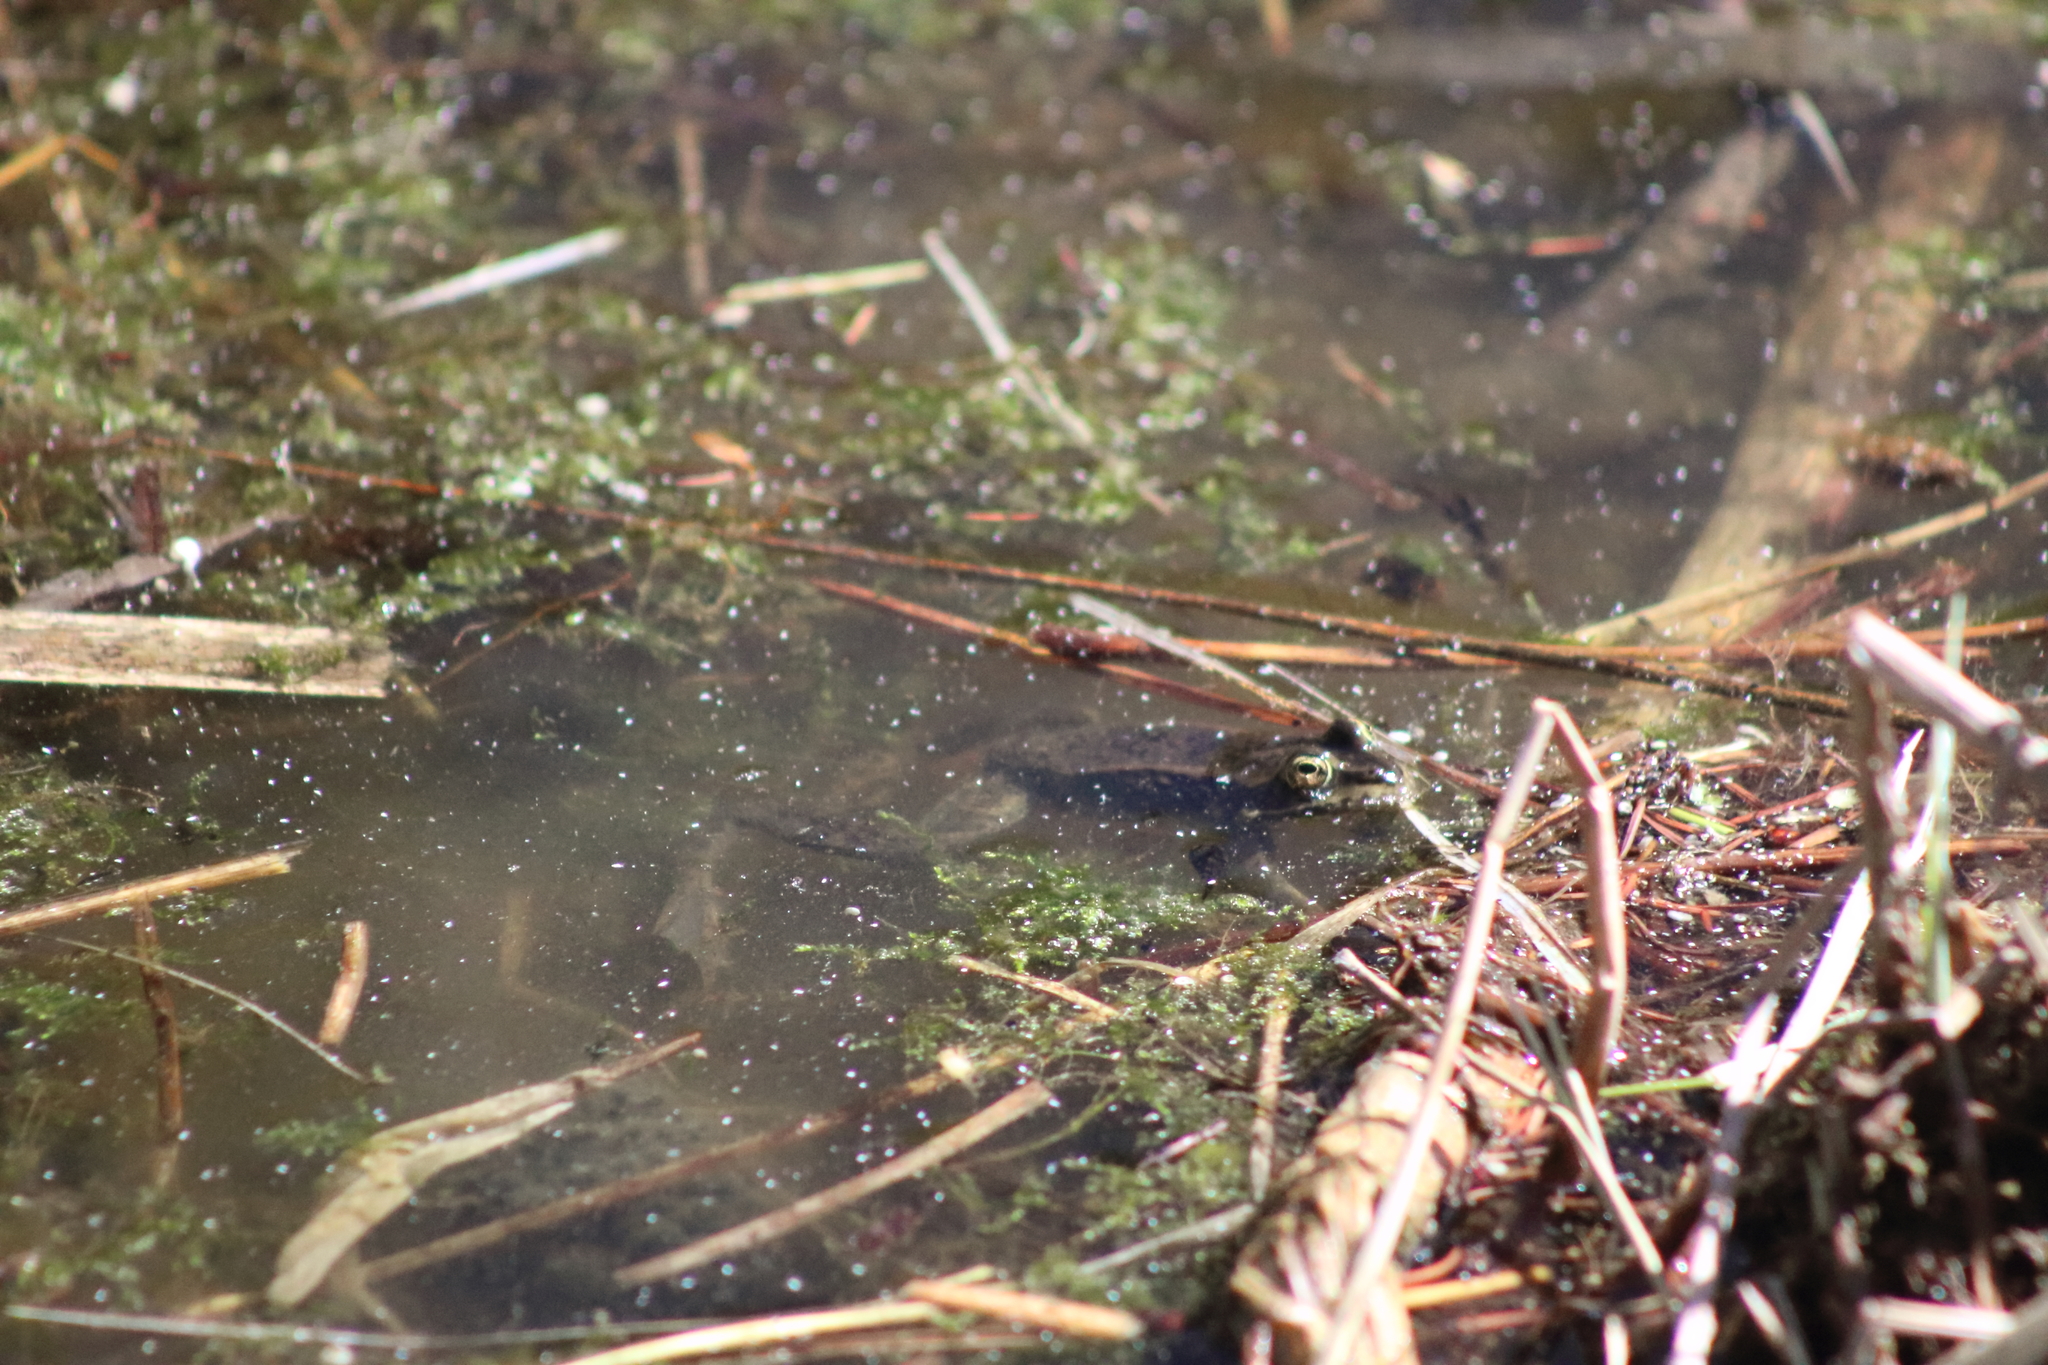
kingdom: Animalia
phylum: Chordata
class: Amphibia
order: Anura
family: Ranidae
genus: Rana
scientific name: Rana luteiventris
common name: Columbia spotted frog
